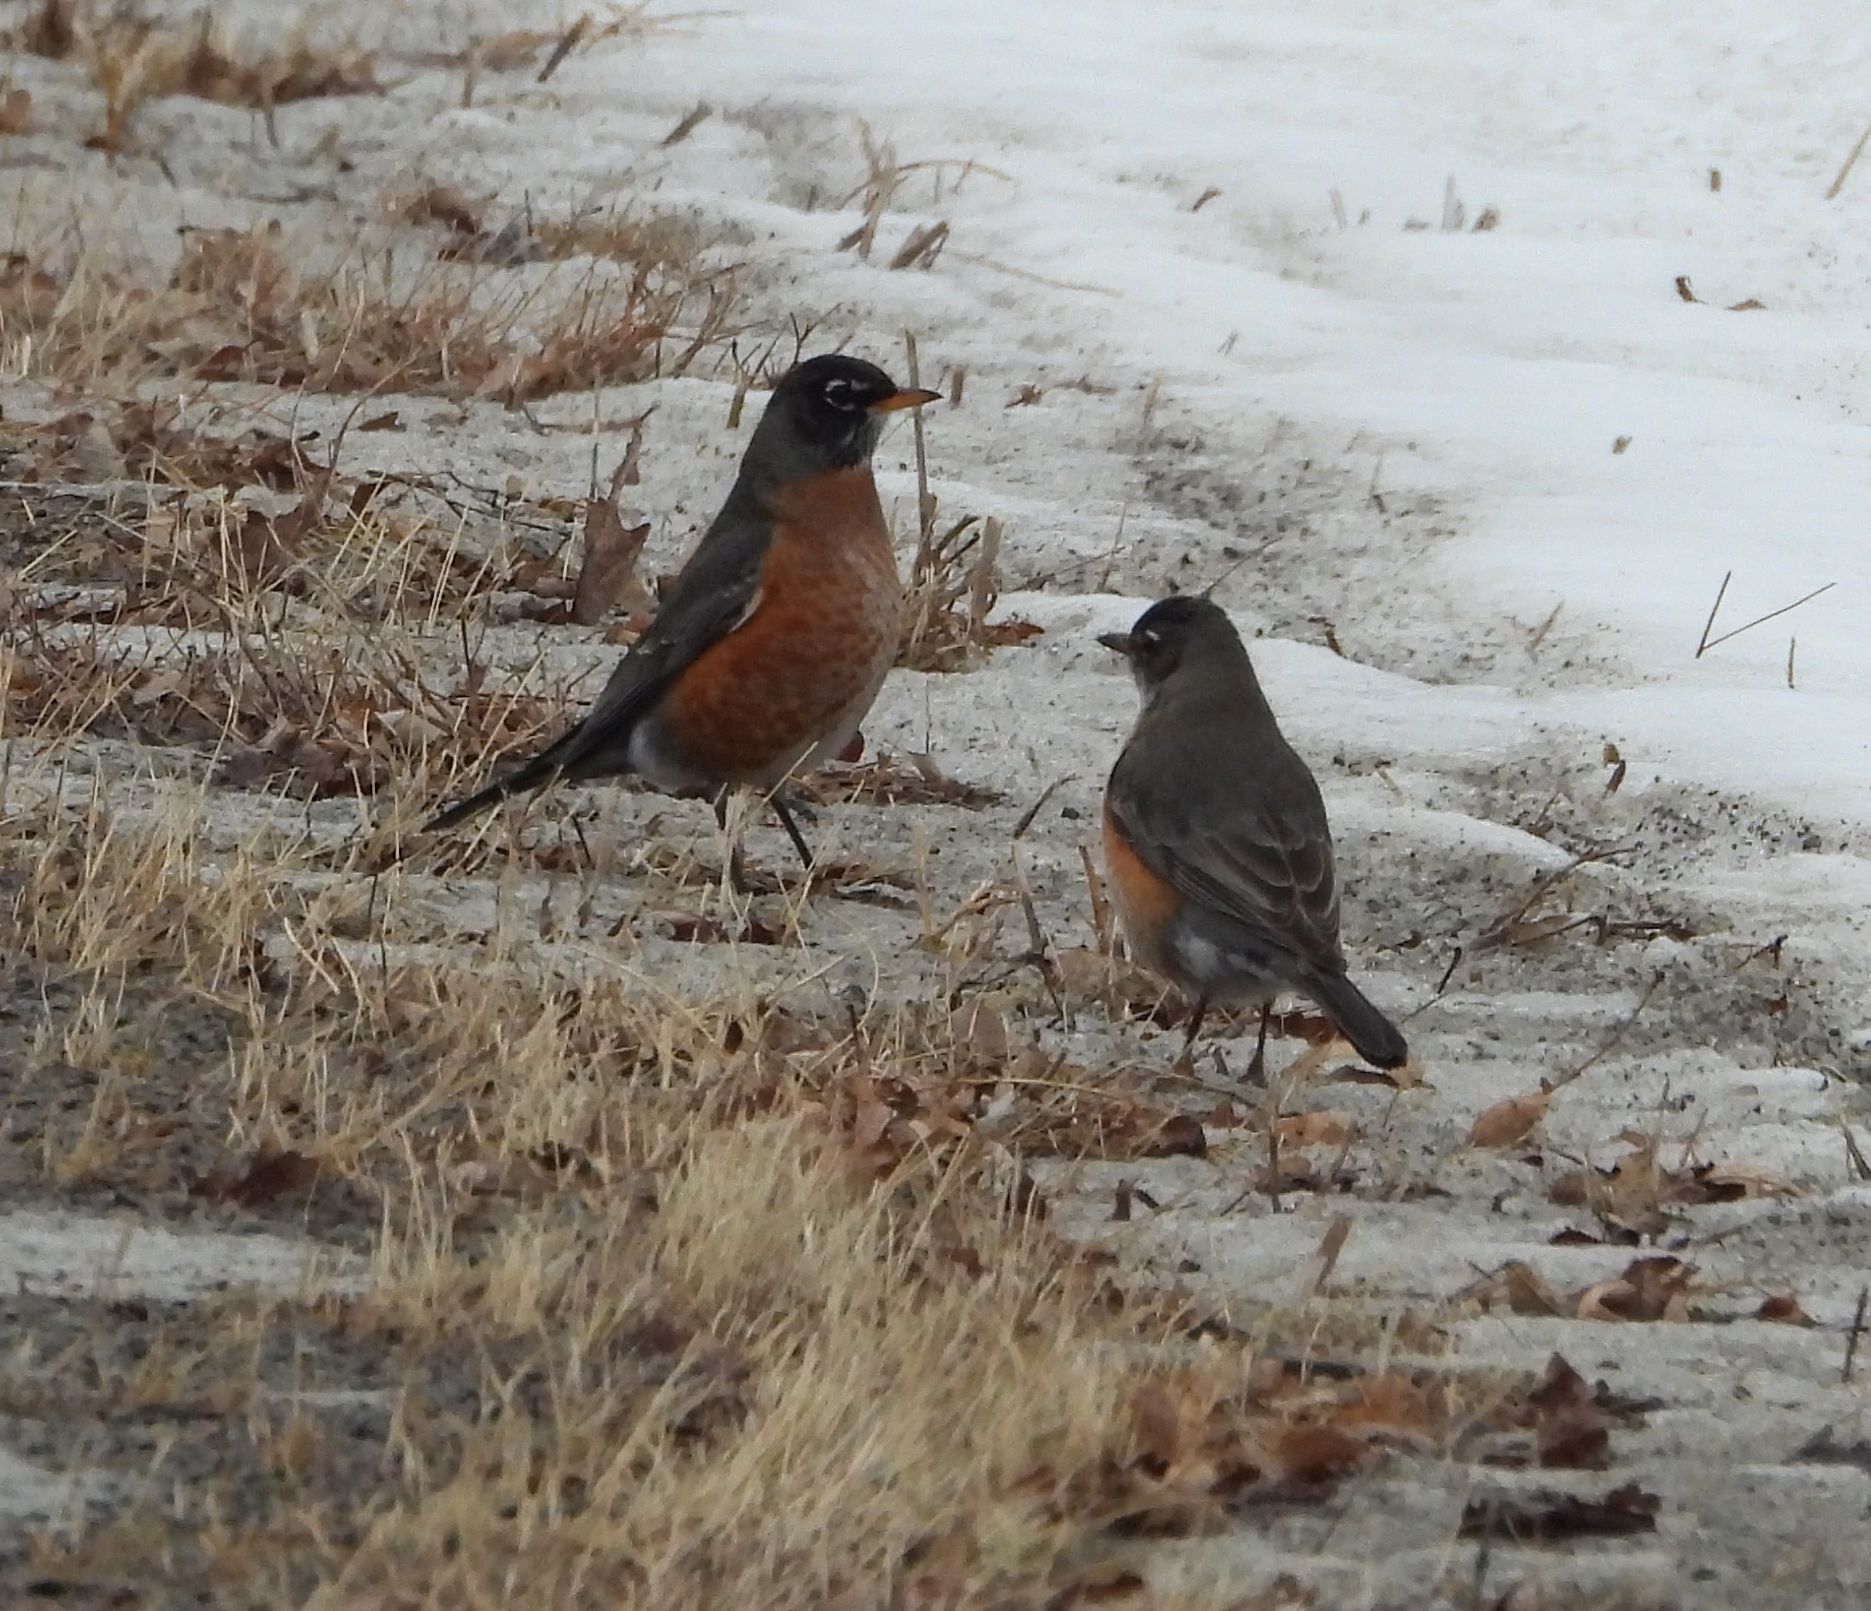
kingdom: Animalia
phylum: Chordata
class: Aves
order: Passeriformes
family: Turdidae
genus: Turdus
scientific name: Turdus migratorius
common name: American robin
